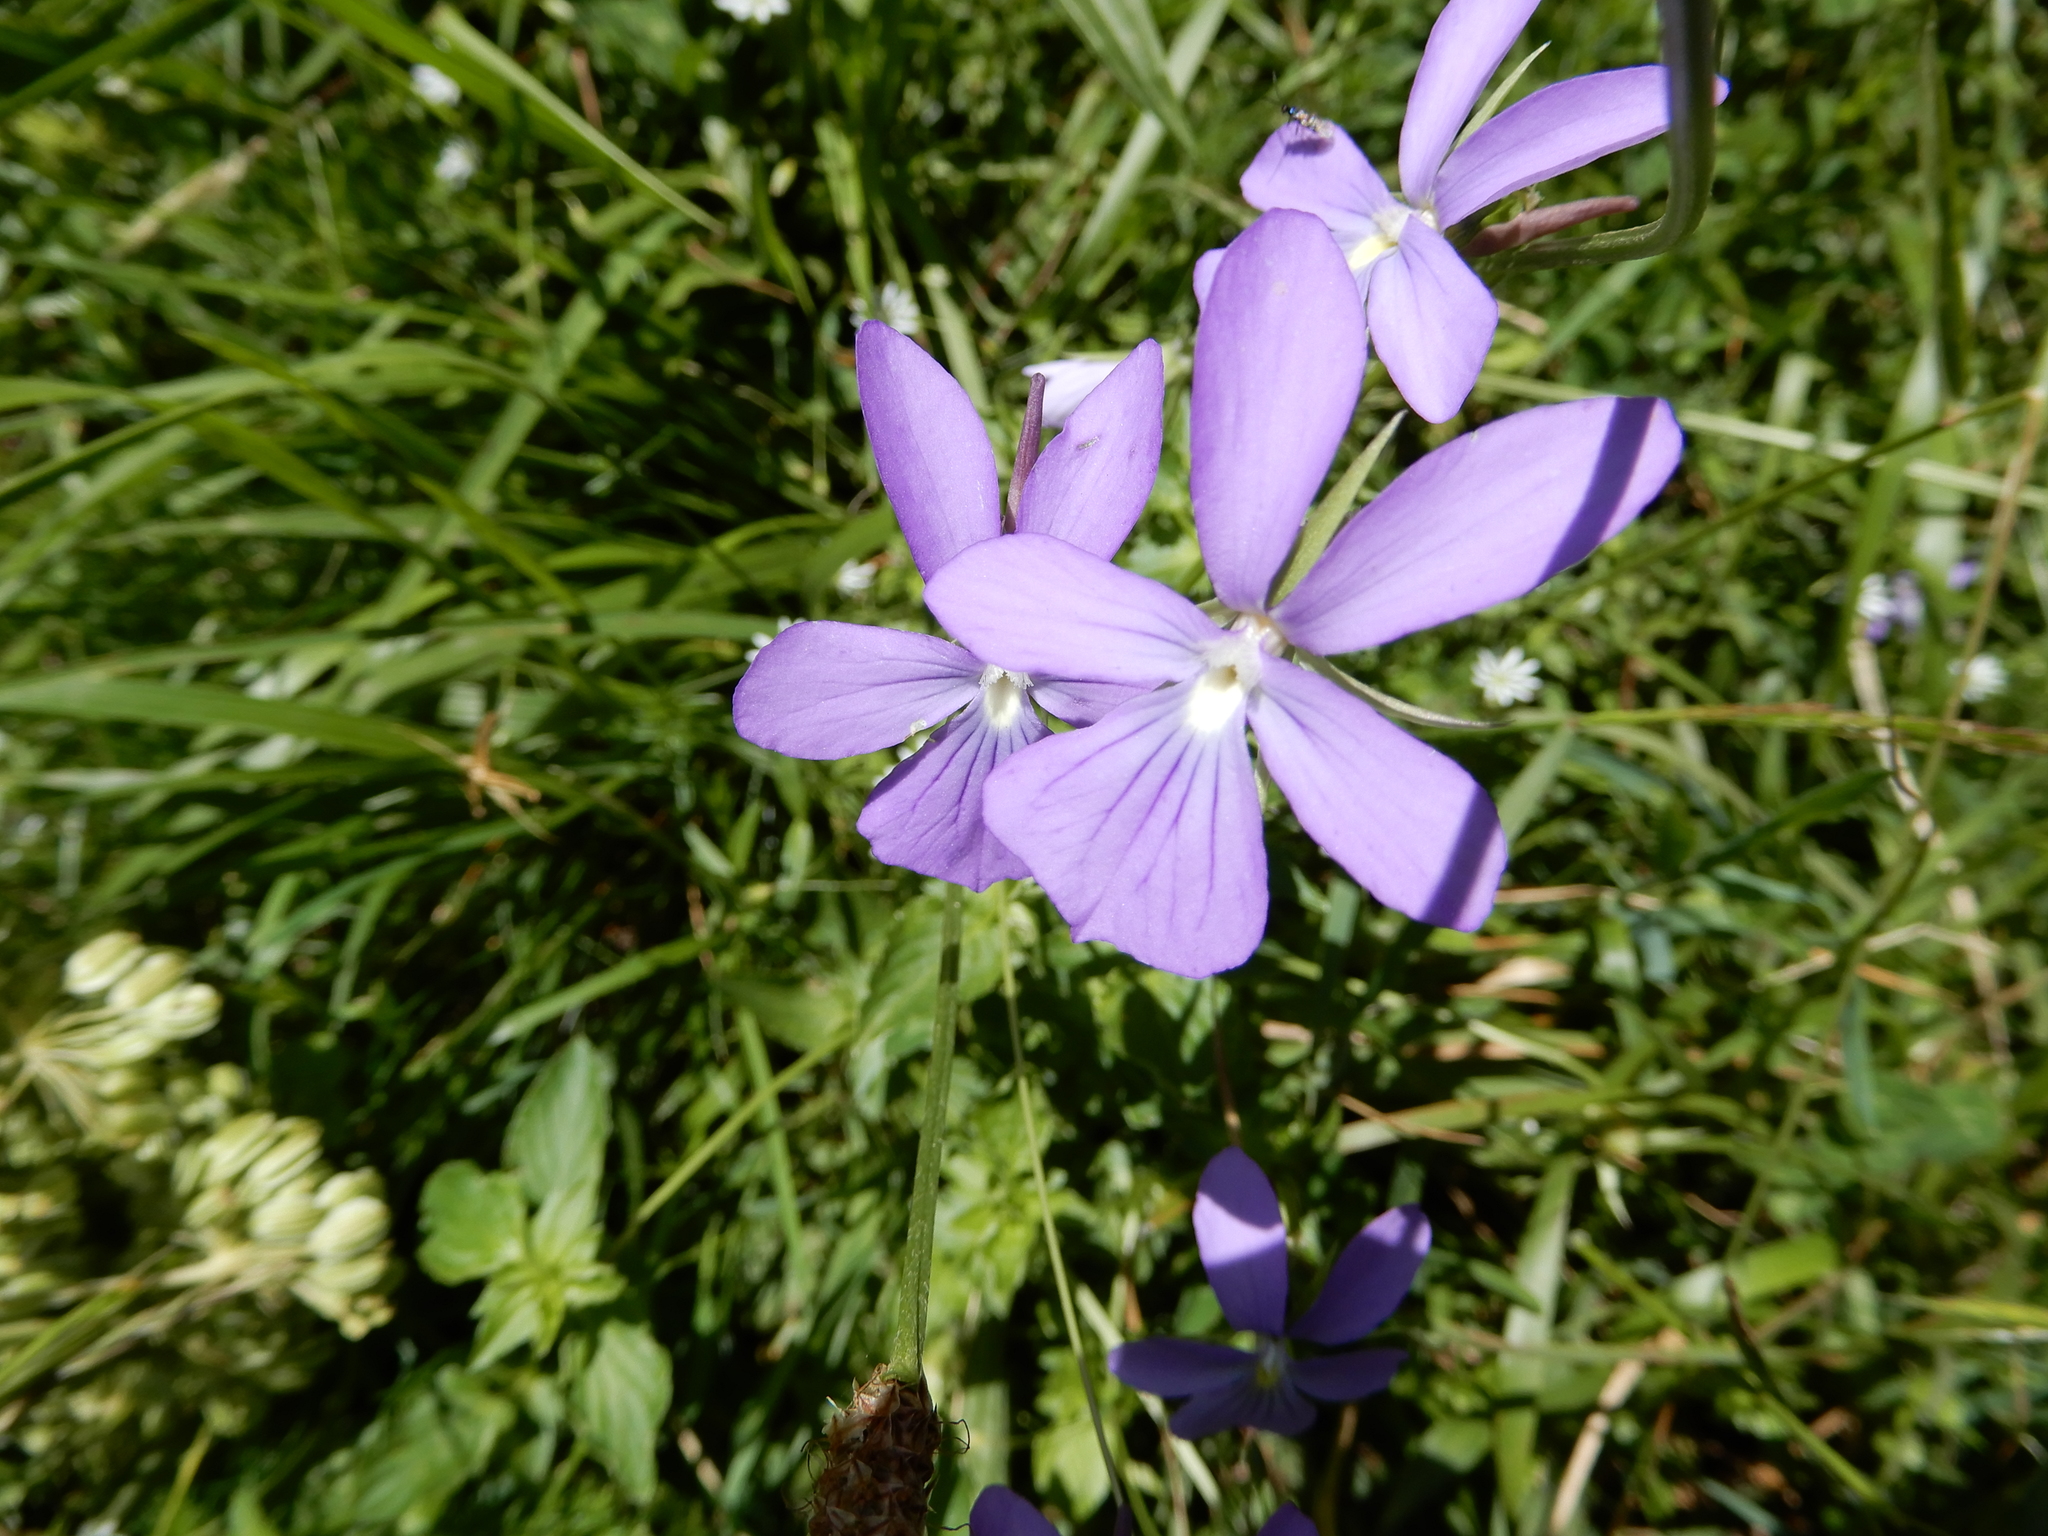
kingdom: Plantae
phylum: Tracheophyta
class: Magnoliopsida
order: Malpighiales
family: Violaceae
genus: Viola
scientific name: Viola cornuta
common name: Horned pansy
